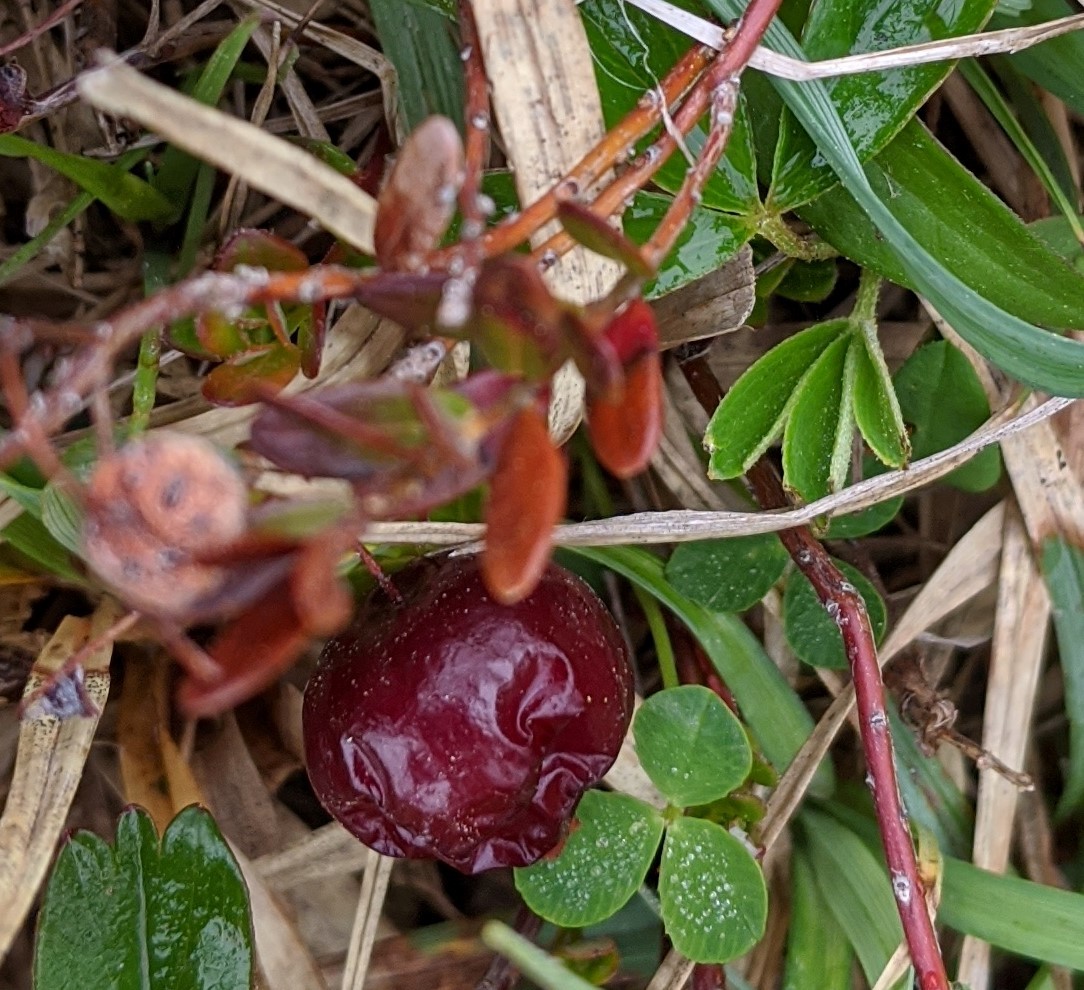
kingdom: Plantae
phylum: Tracheophyta
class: Magnoliopsida
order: Ericales
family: Ericaceae
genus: Vaccinium
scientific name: Vaccinium macrocarpon
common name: American cranberry
